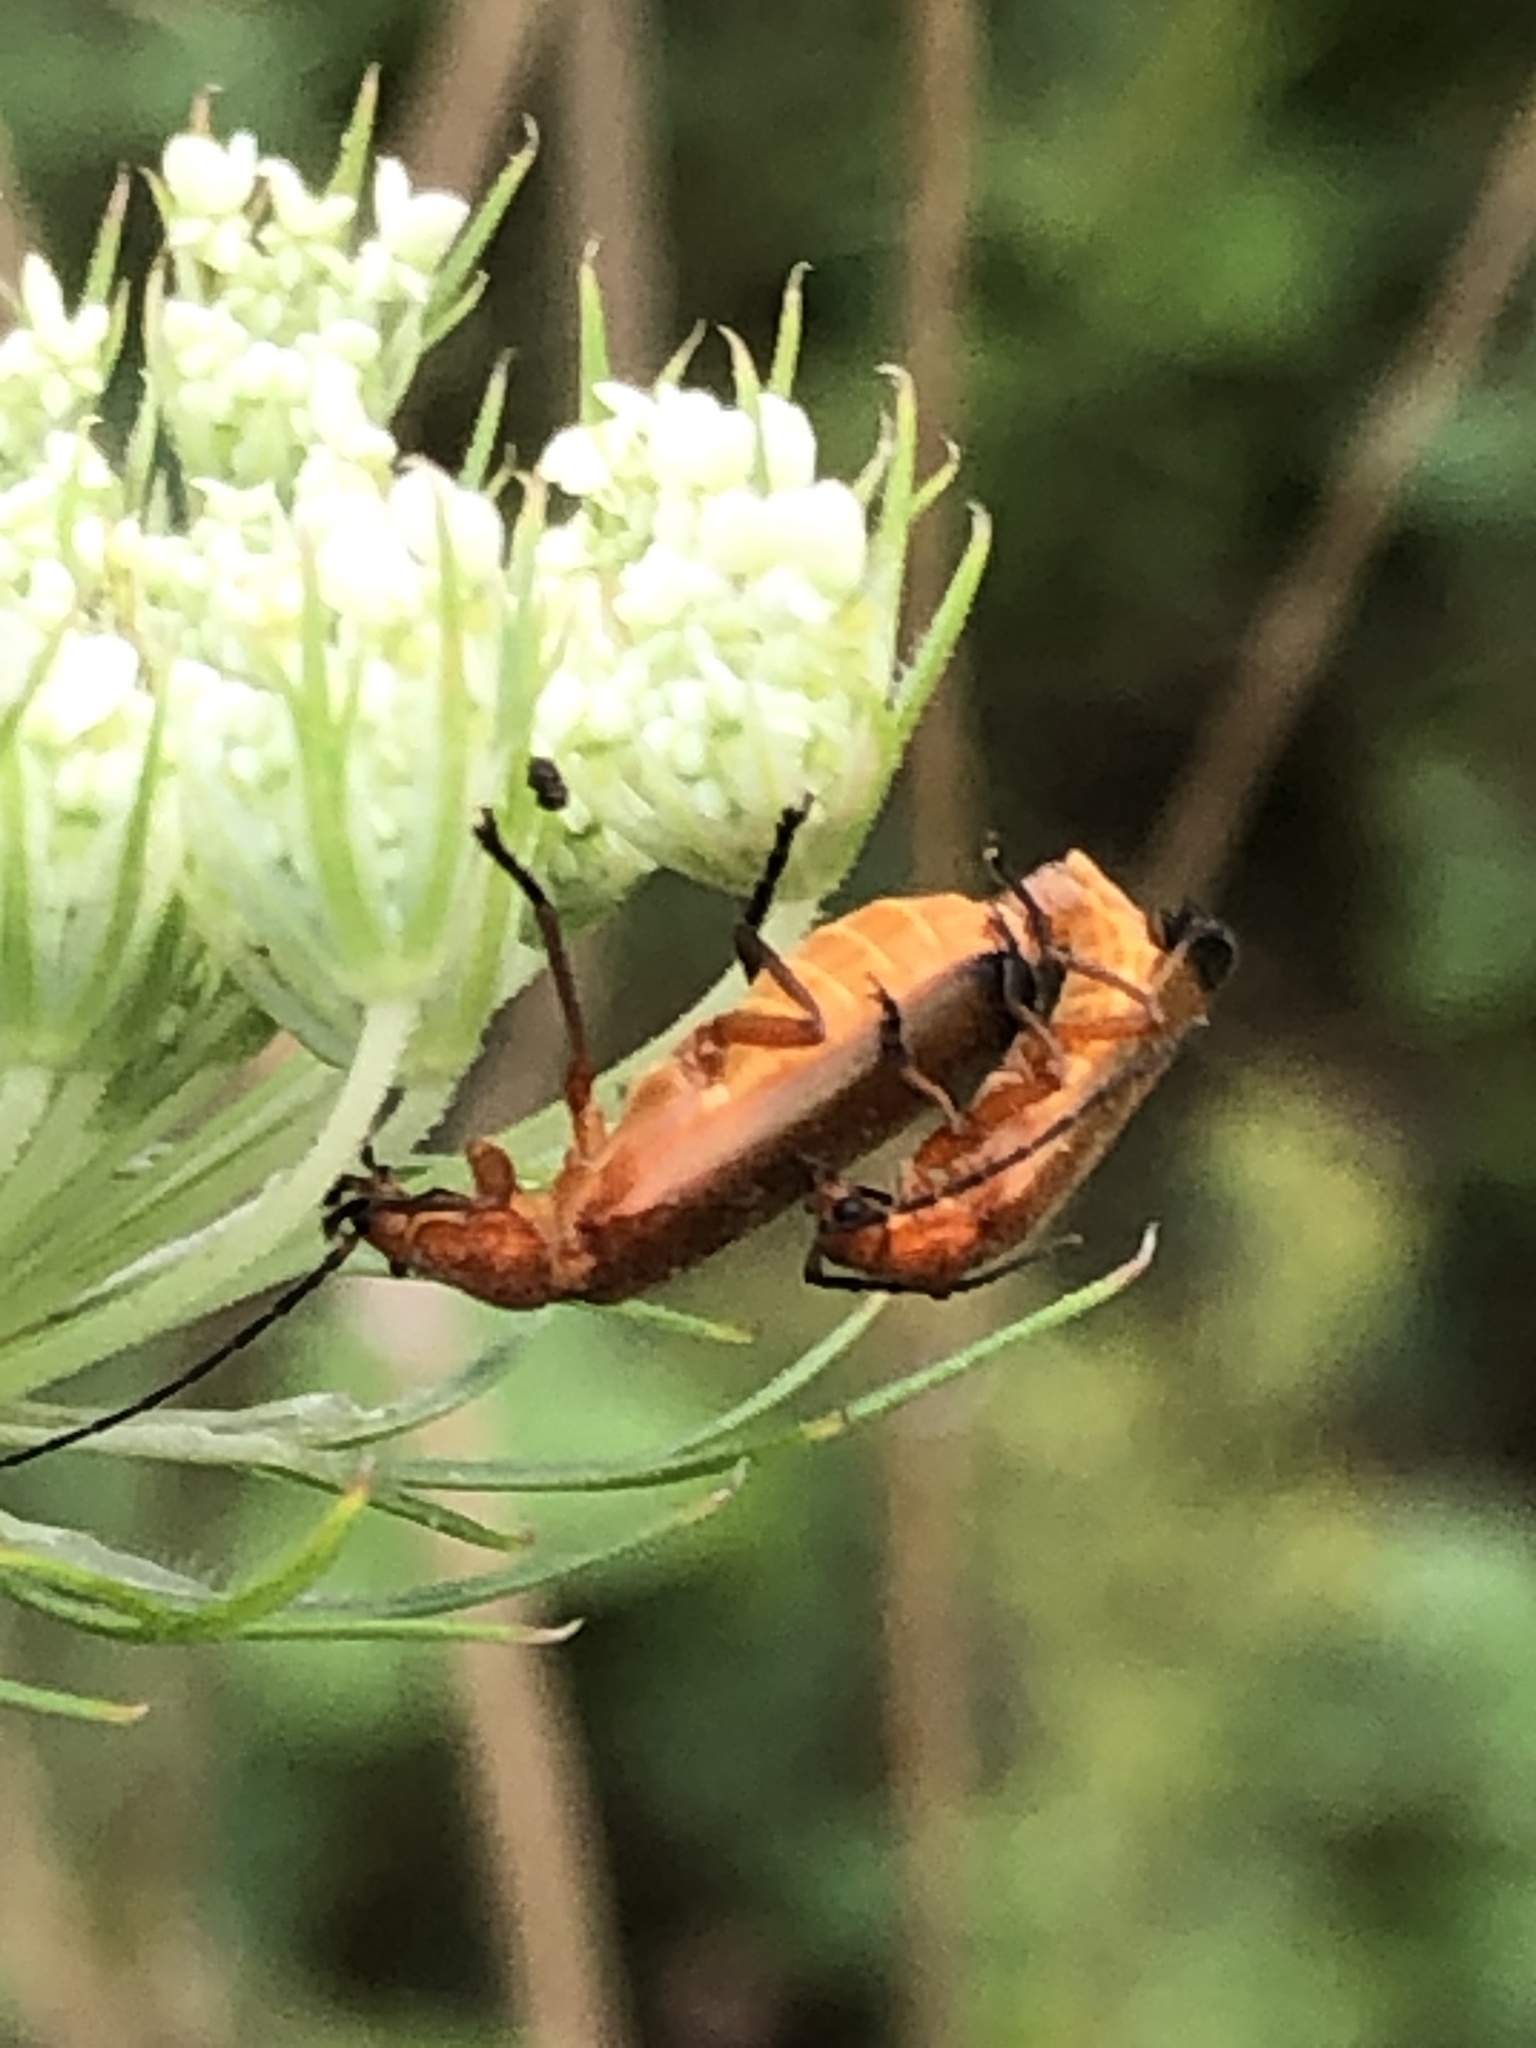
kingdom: Animalia
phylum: Arthropoda
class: Insecta
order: Coleoptera
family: Cantharidae
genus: Rhagonycha
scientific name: Rhagonycha fulva
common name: Common red soldier beetle
